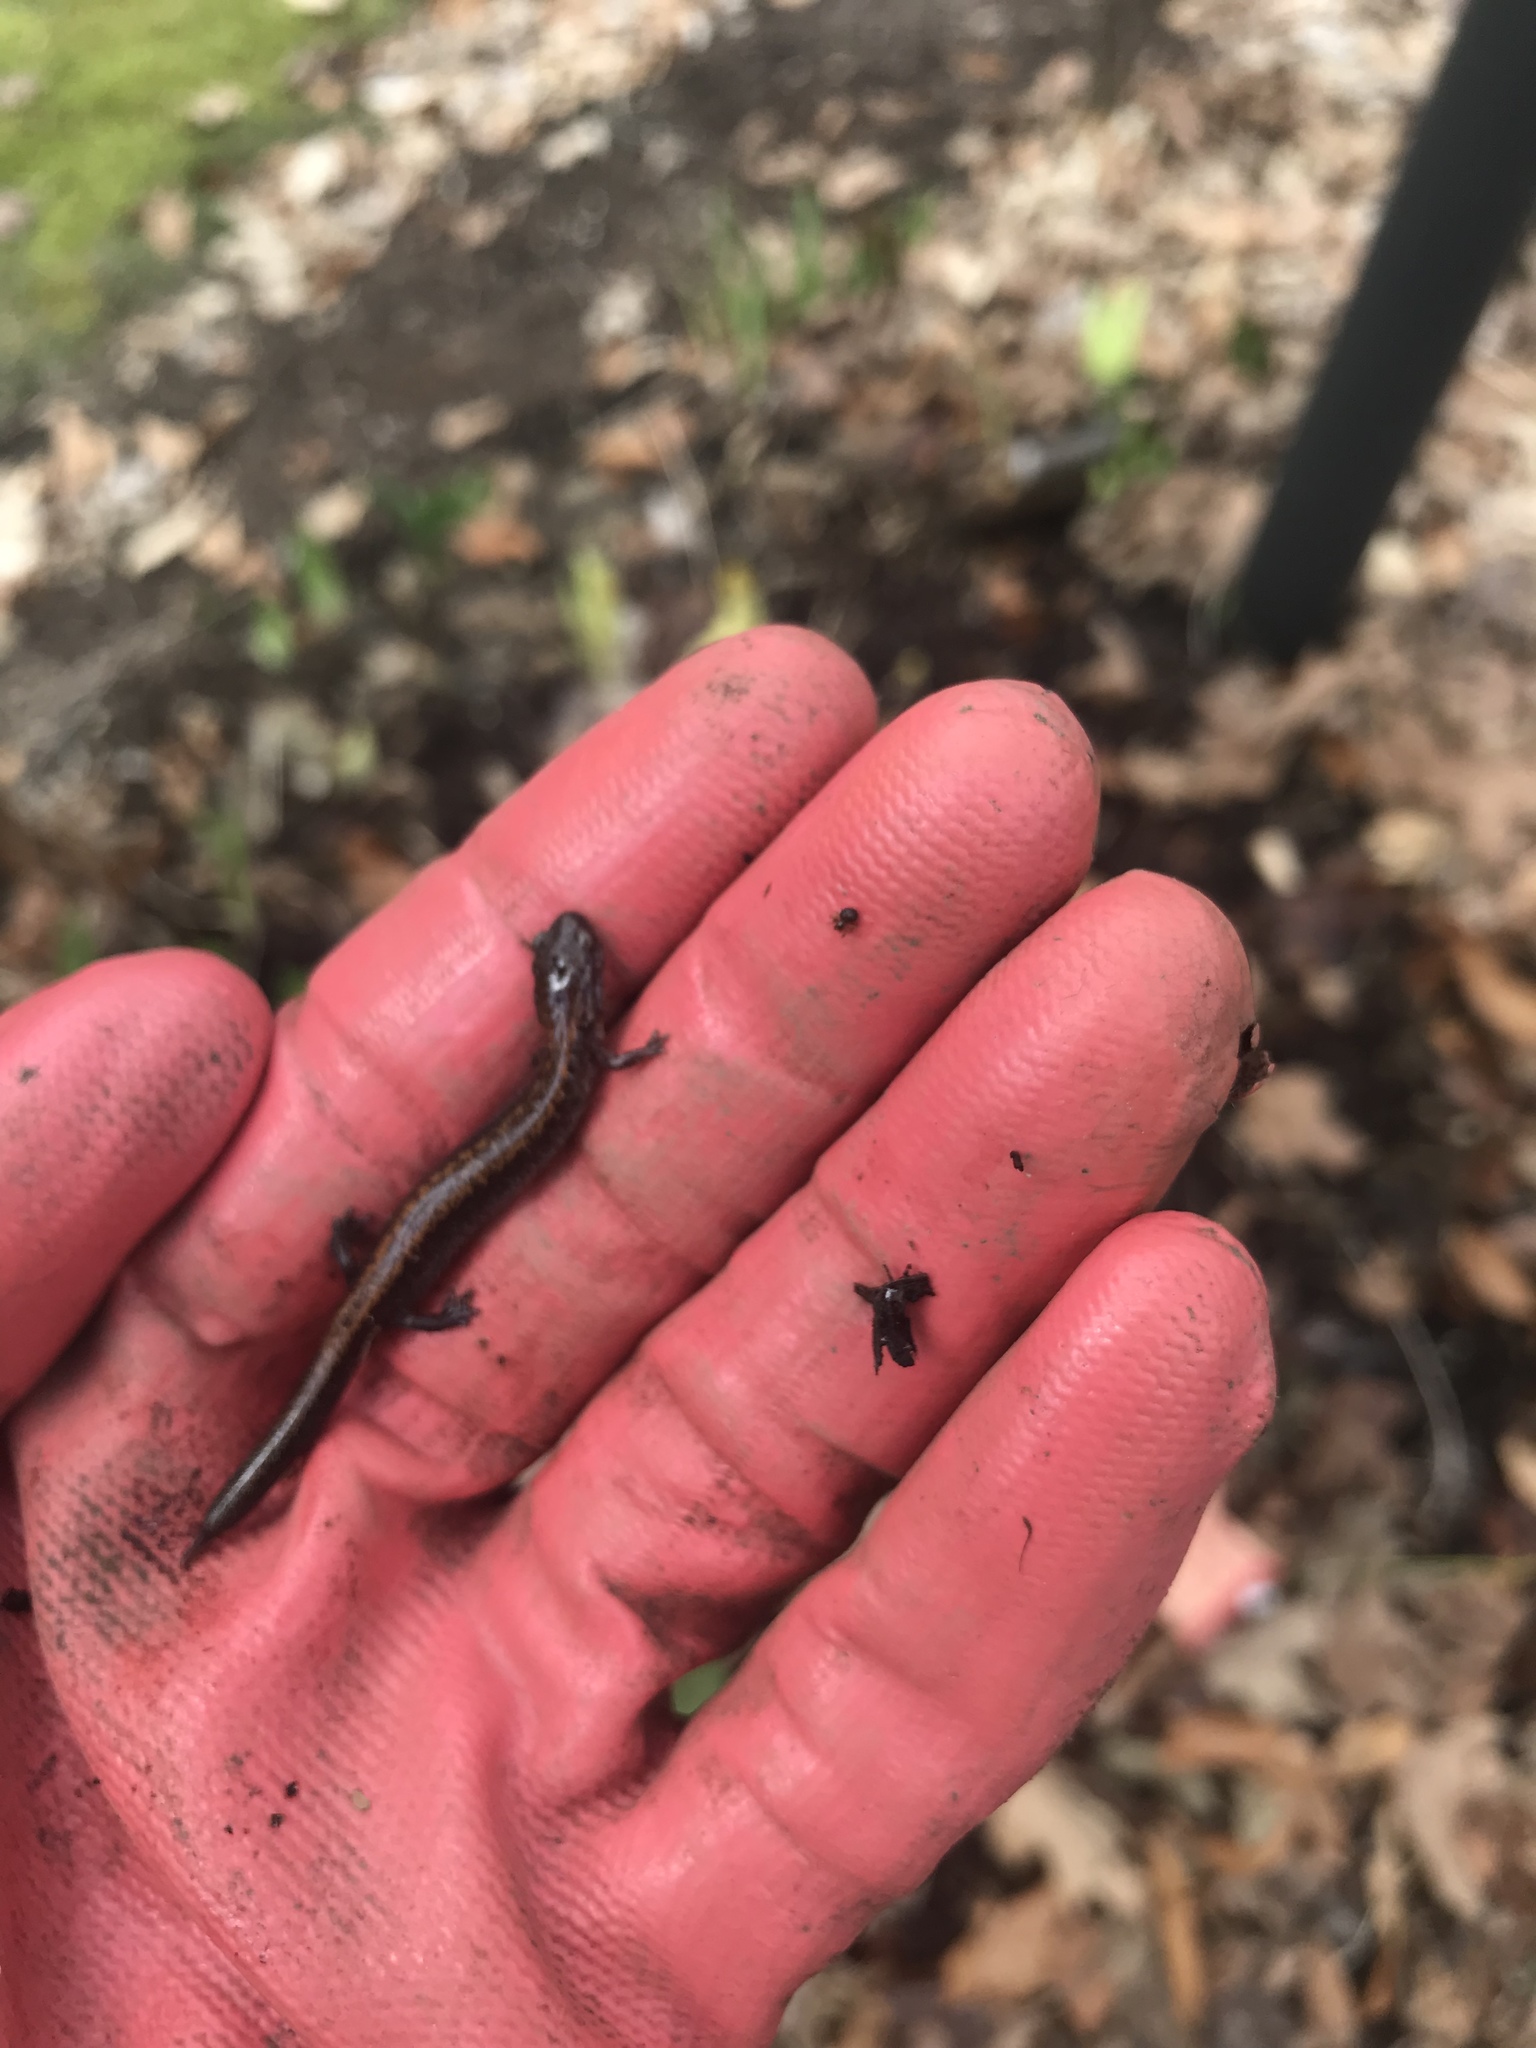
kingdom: Animalia
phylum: Chordata
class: Amphibia
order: Caudata
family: Plethodontidae
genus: Plethodon
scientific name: Plethodon cinereus
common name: Redback salamander
